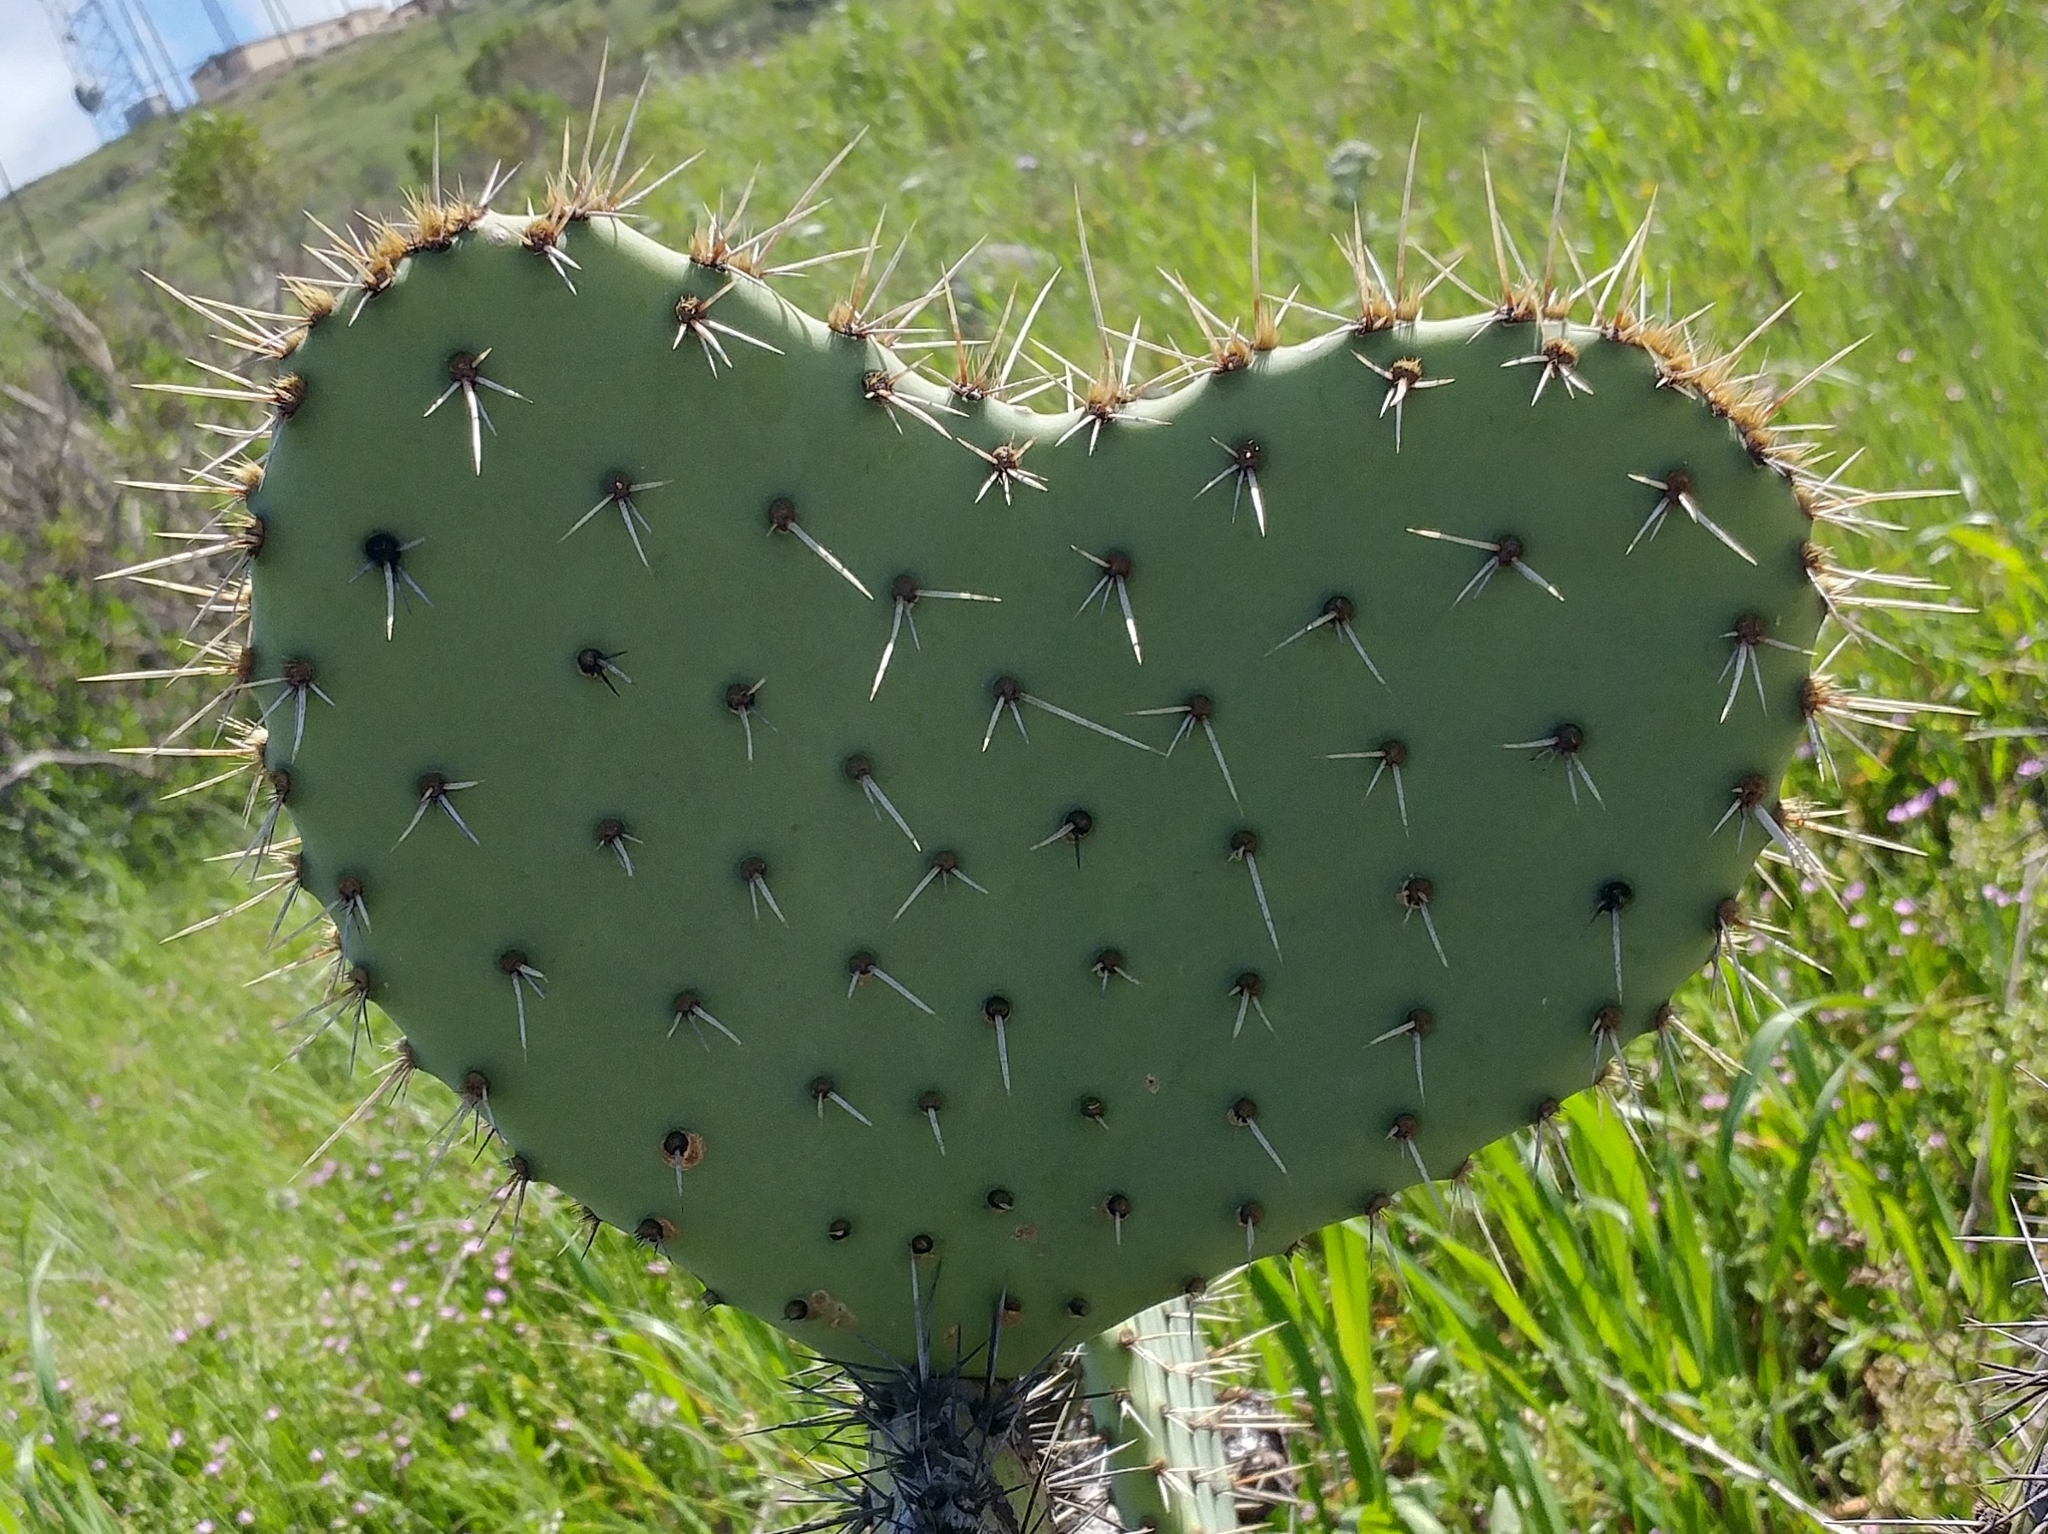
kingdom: Plantae
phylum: Tracheophyta
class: Magnoliopsida
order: Caryophyllales
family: Cactaceae
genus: Opuntia
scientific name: Opuntia littoralis
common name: Coastal prickly-pear
